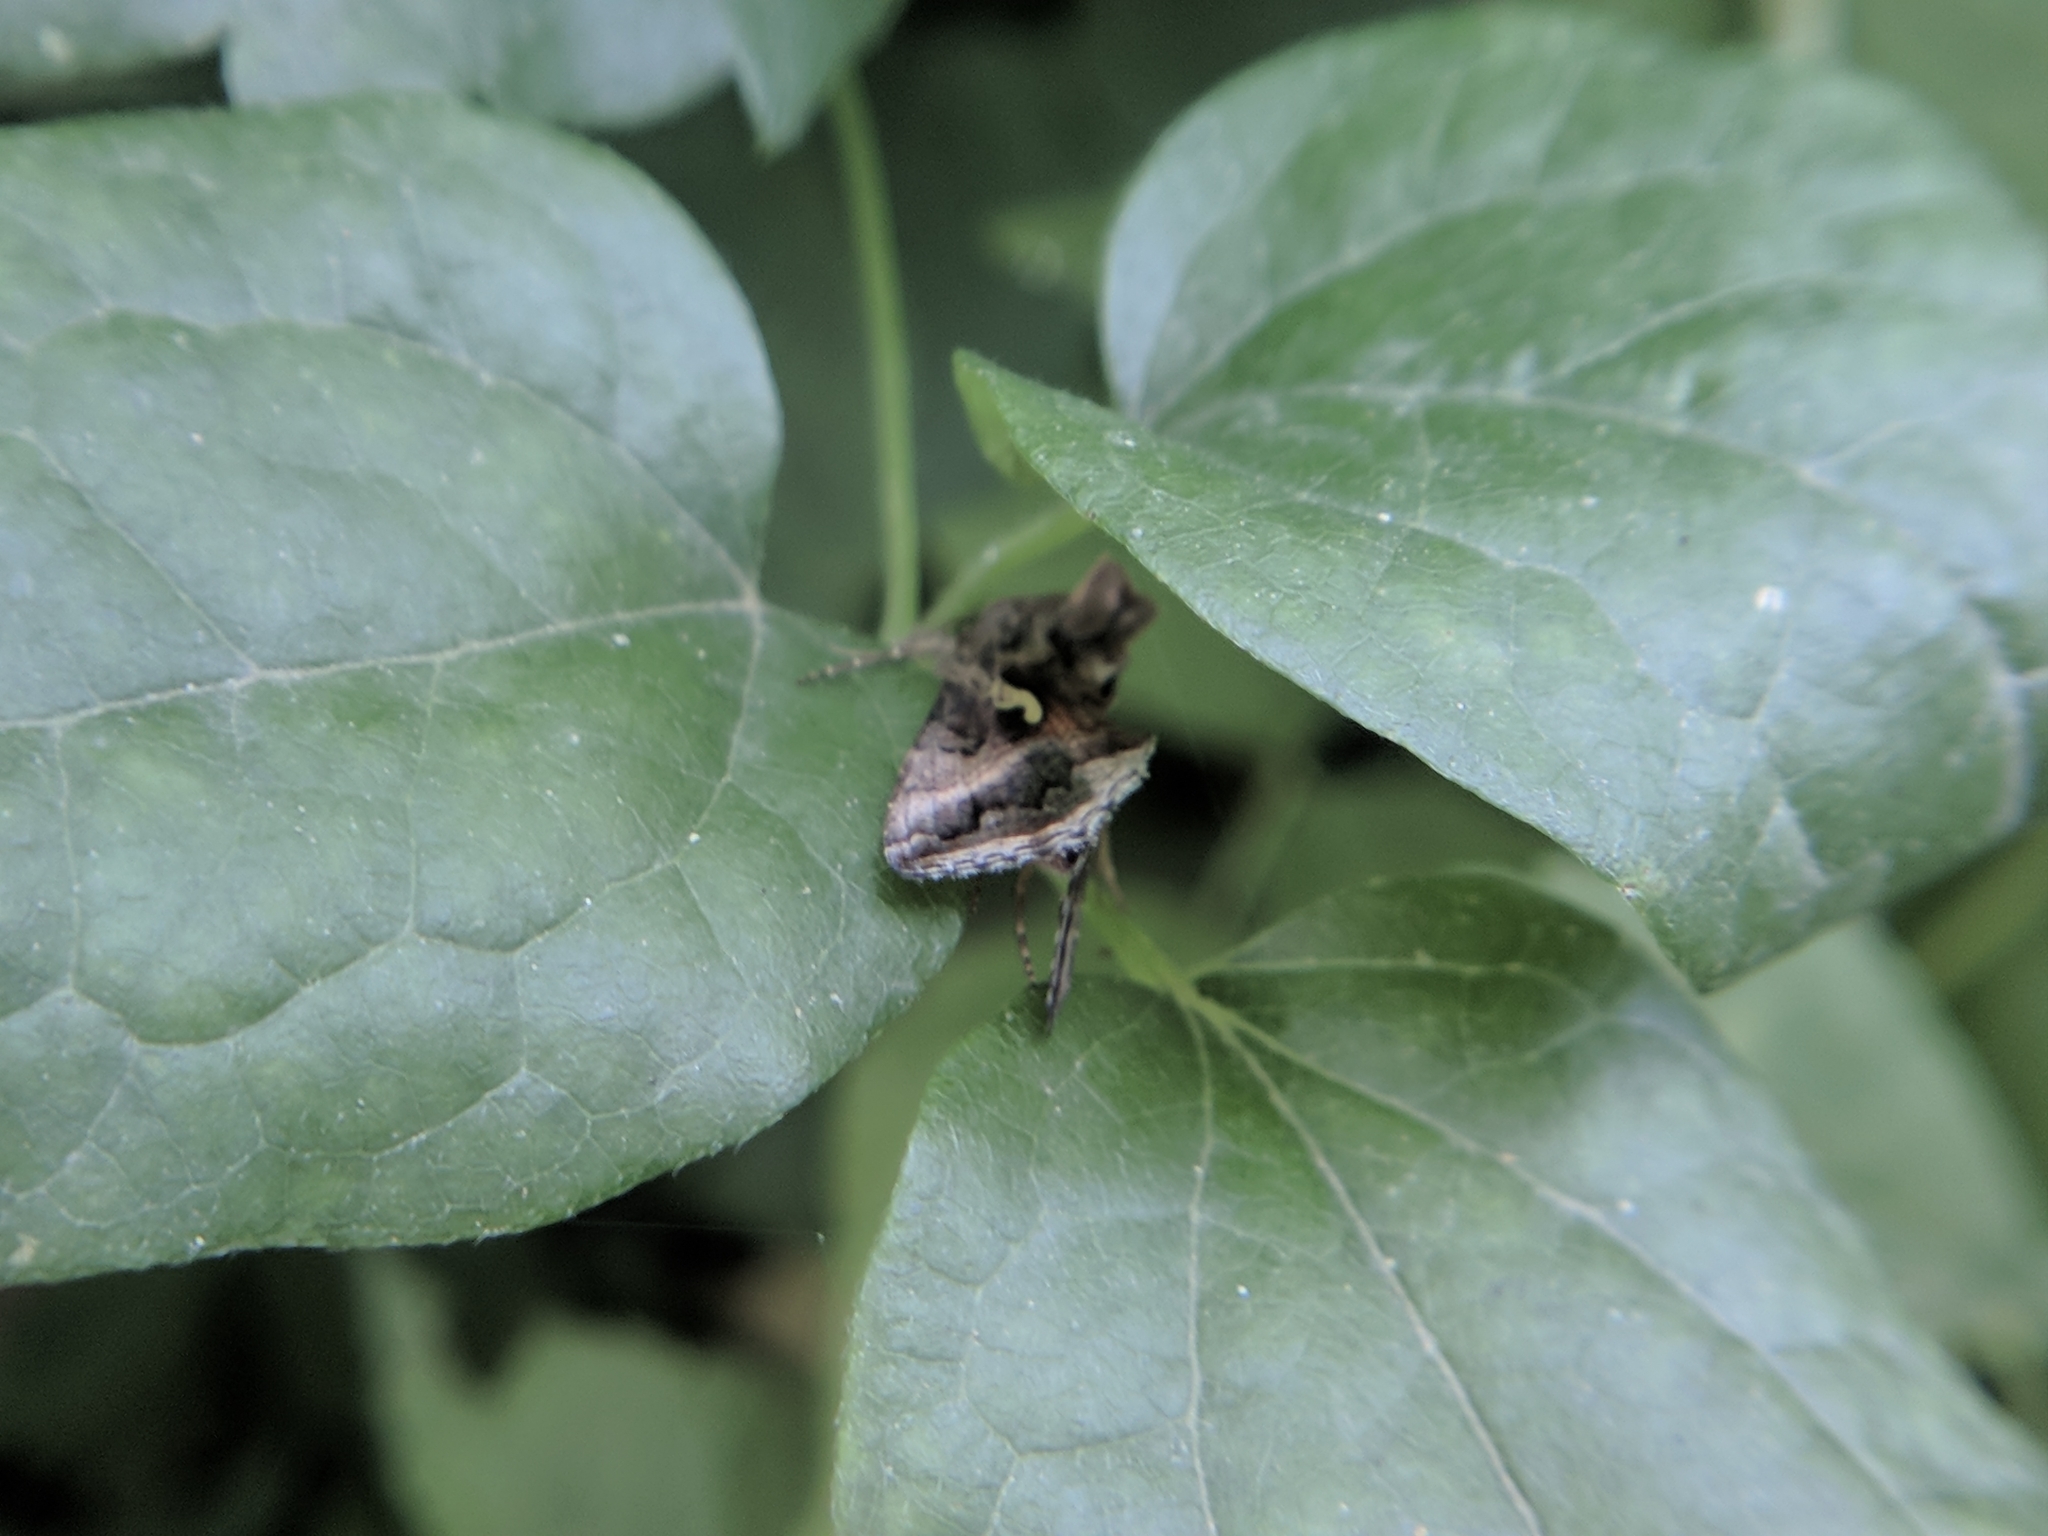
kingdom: Animalia
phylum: Arthropoda
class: Insecta
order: Lepidoptera
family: Noctuidae
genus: Autographa
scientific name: Autographa gamma
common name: Silver y
